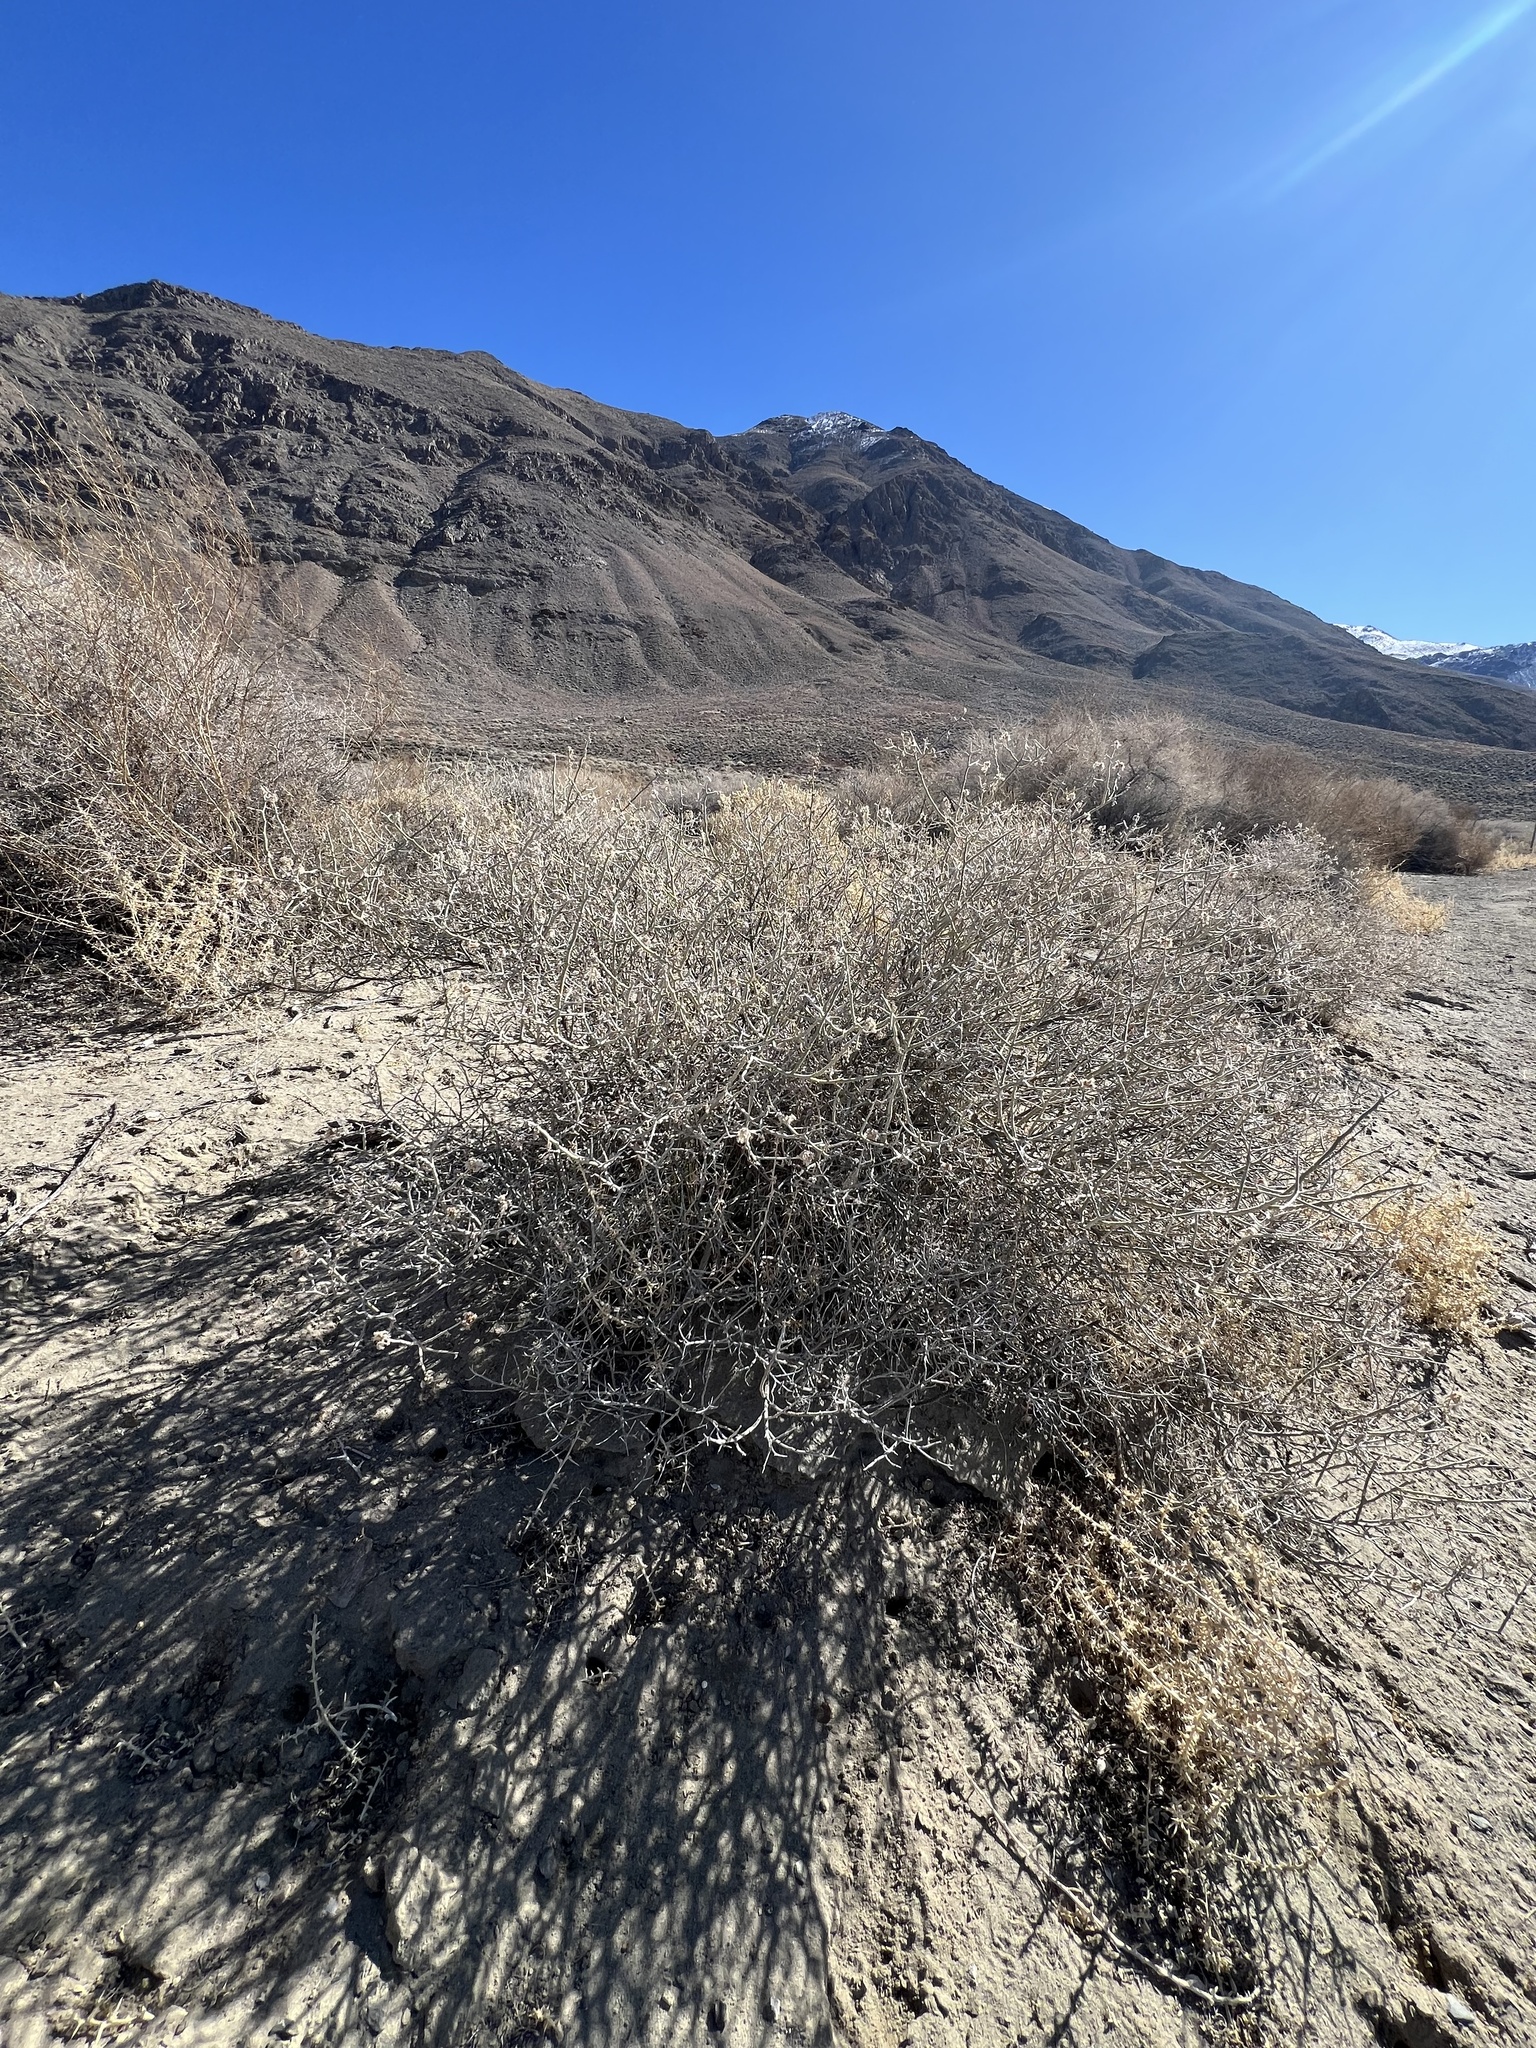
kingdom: Plantae
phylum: Tracheophyta
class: Magnoliopsida
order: Fabales
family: Fabaceae
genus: Psorothamnus
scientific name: Psorothamnus polydenius
